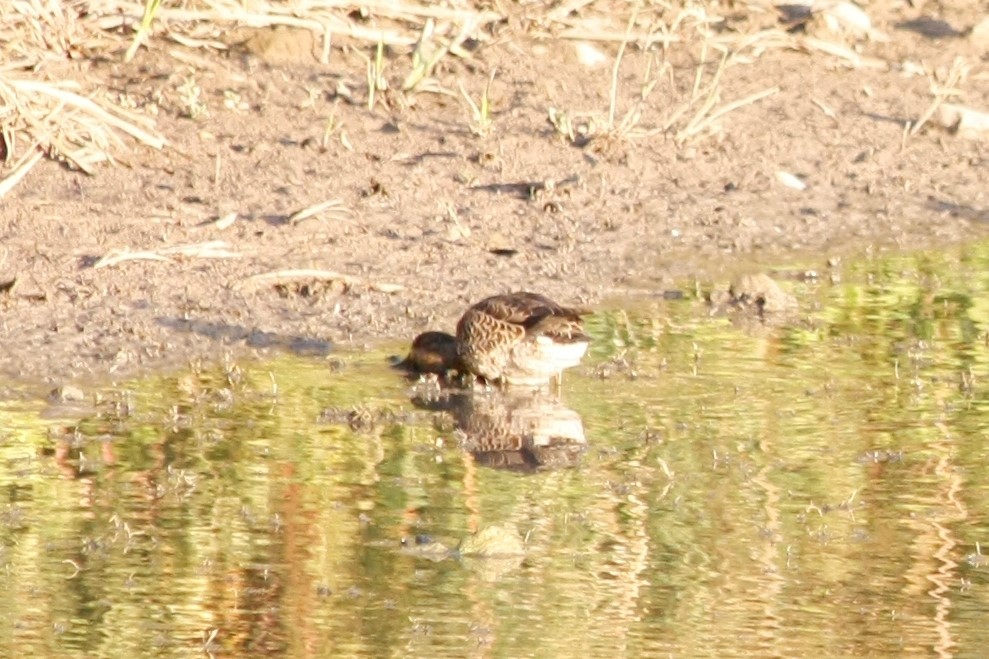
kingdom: Animalia
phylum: Chordata
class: Aves
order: Anseriformes
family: Anatidae
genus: Anas
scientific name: Anas crecca
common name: Eurasian teal
